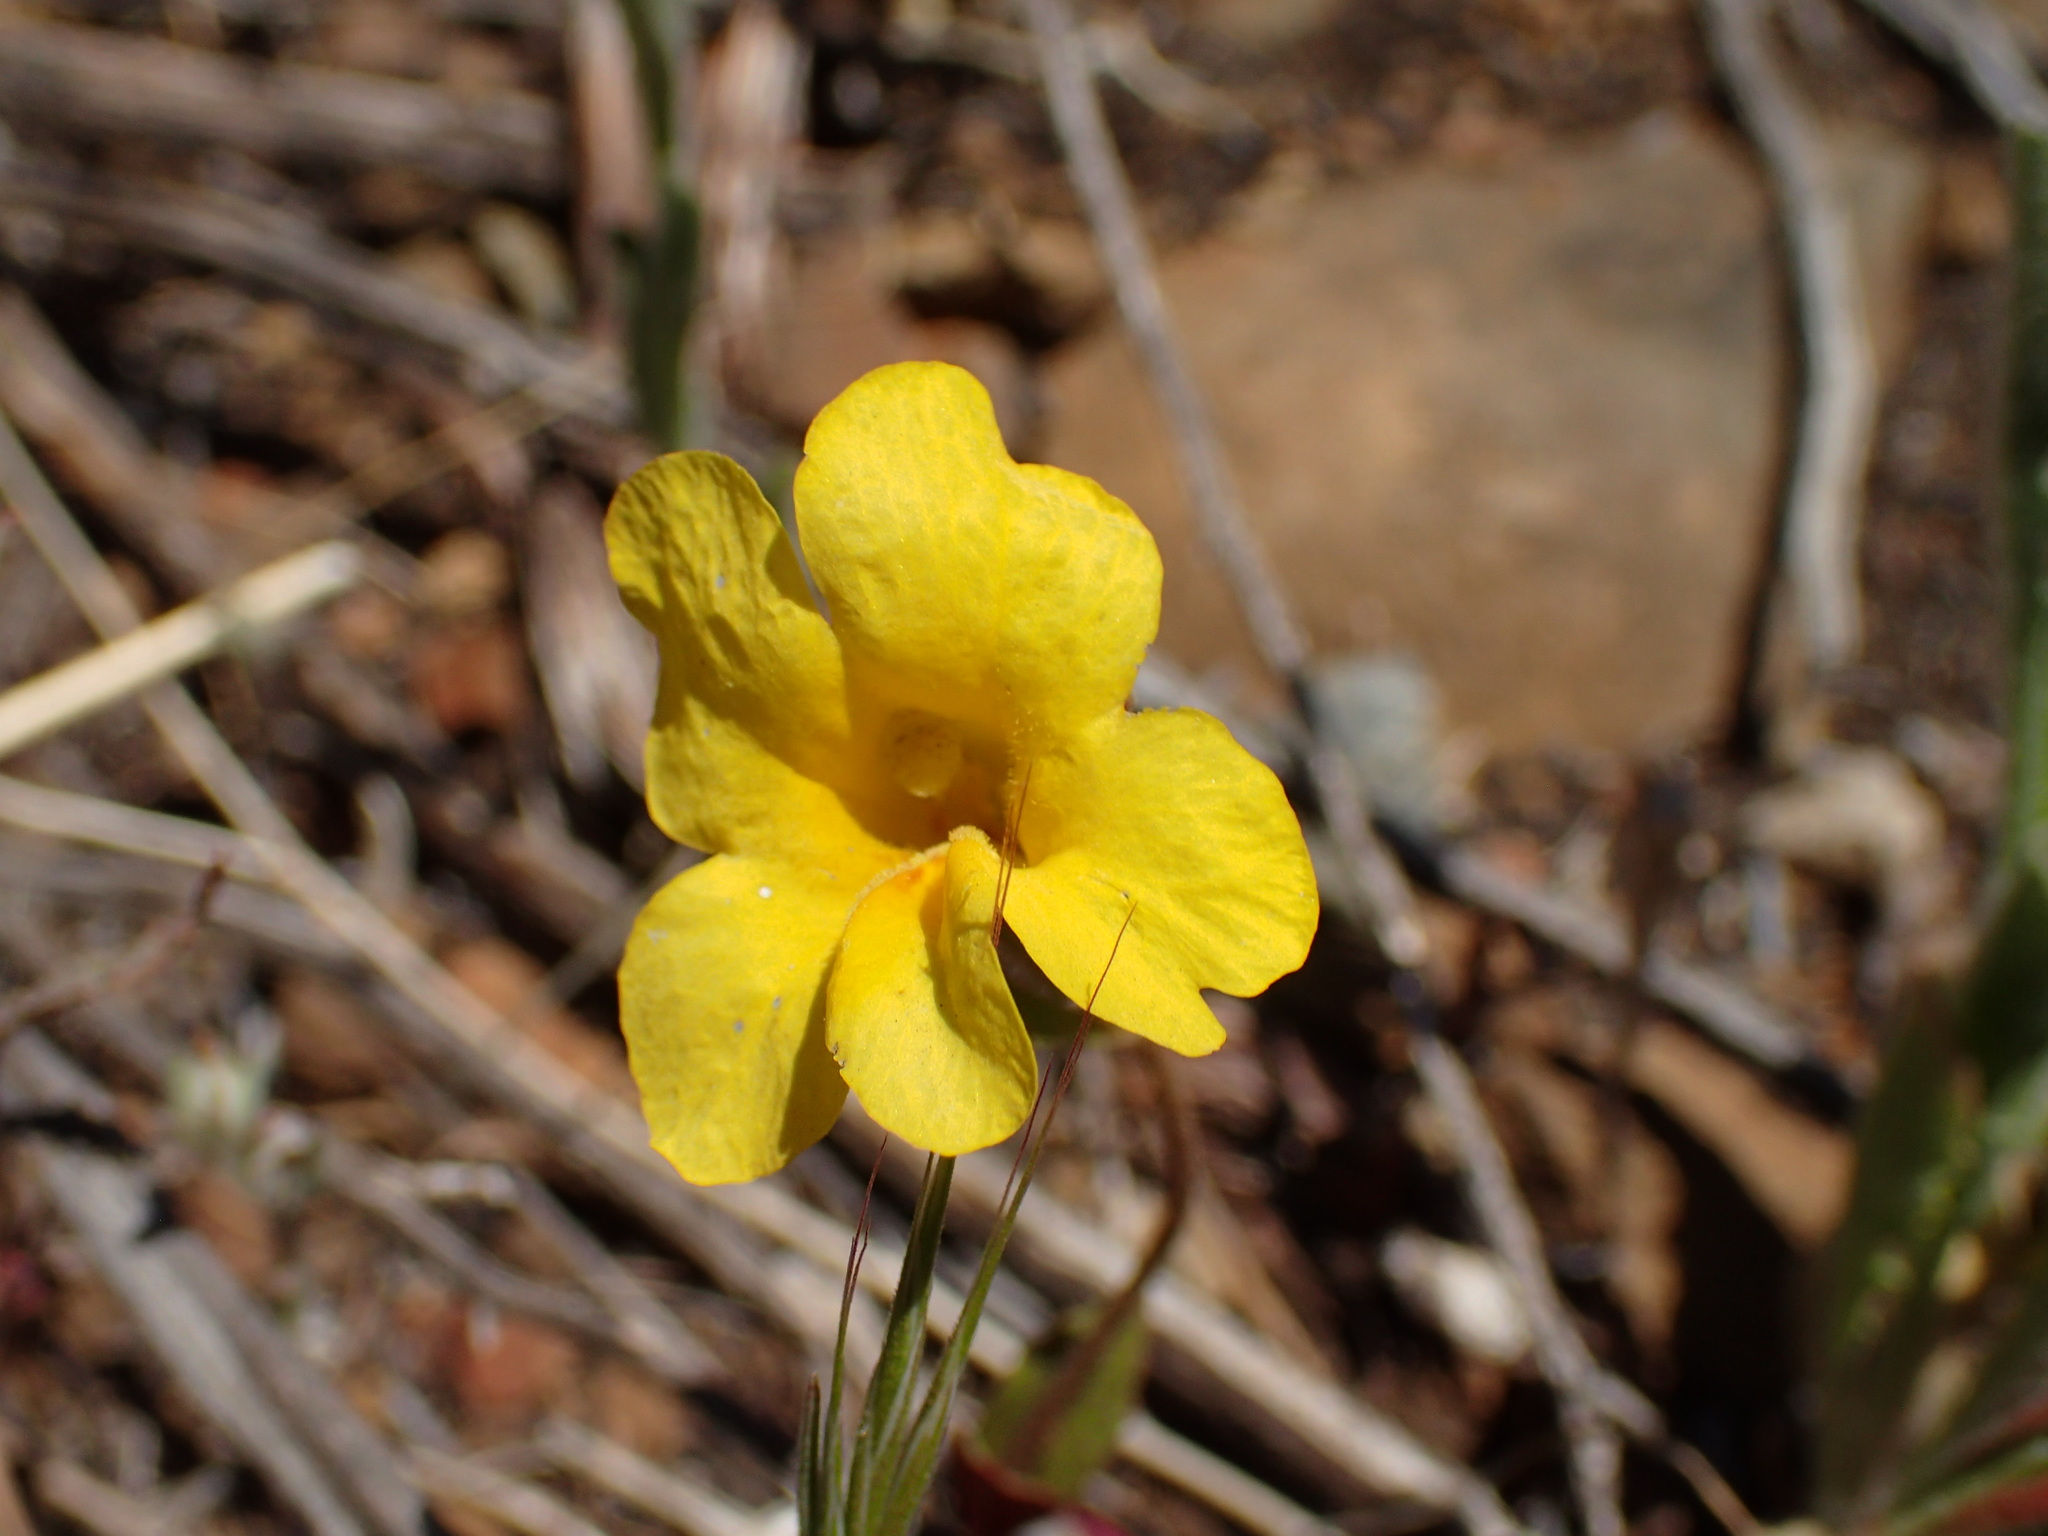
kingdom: Plantae
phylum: Tracheophyta
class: Magnoliopsida
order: Lamiales
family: Phrymaceae
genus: Diplacus
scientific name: Diplacus brevipes
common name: Wide-throat yellow monkey-flower
